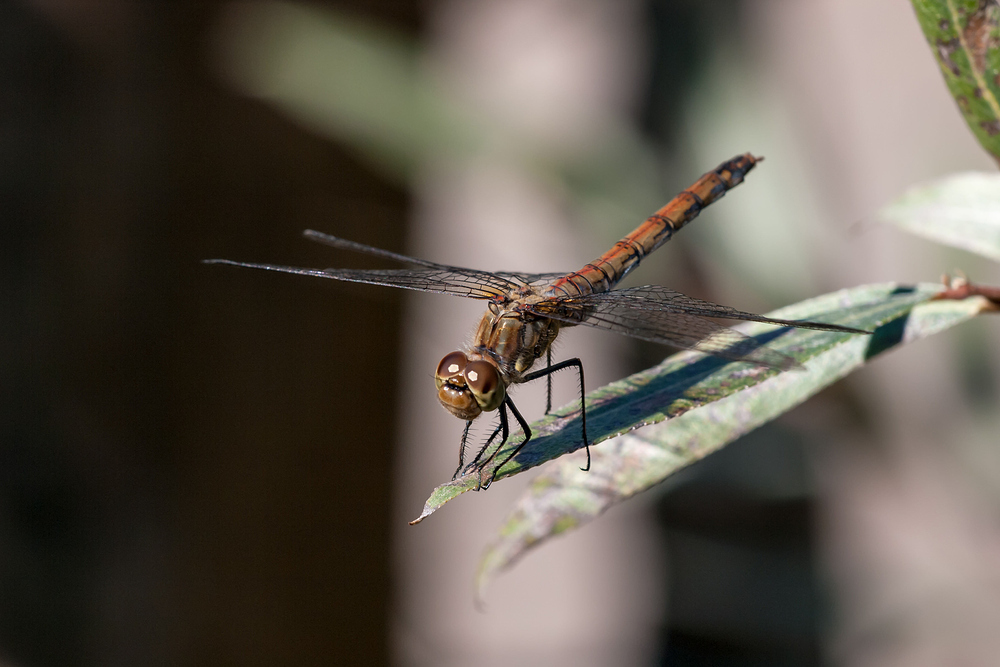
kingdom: Animalia
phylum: Arthropoda
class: Insecta
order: Odonata
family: Libellulidae
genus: Sympetrum
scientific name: Sympetrum striolatum
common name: Common darter
